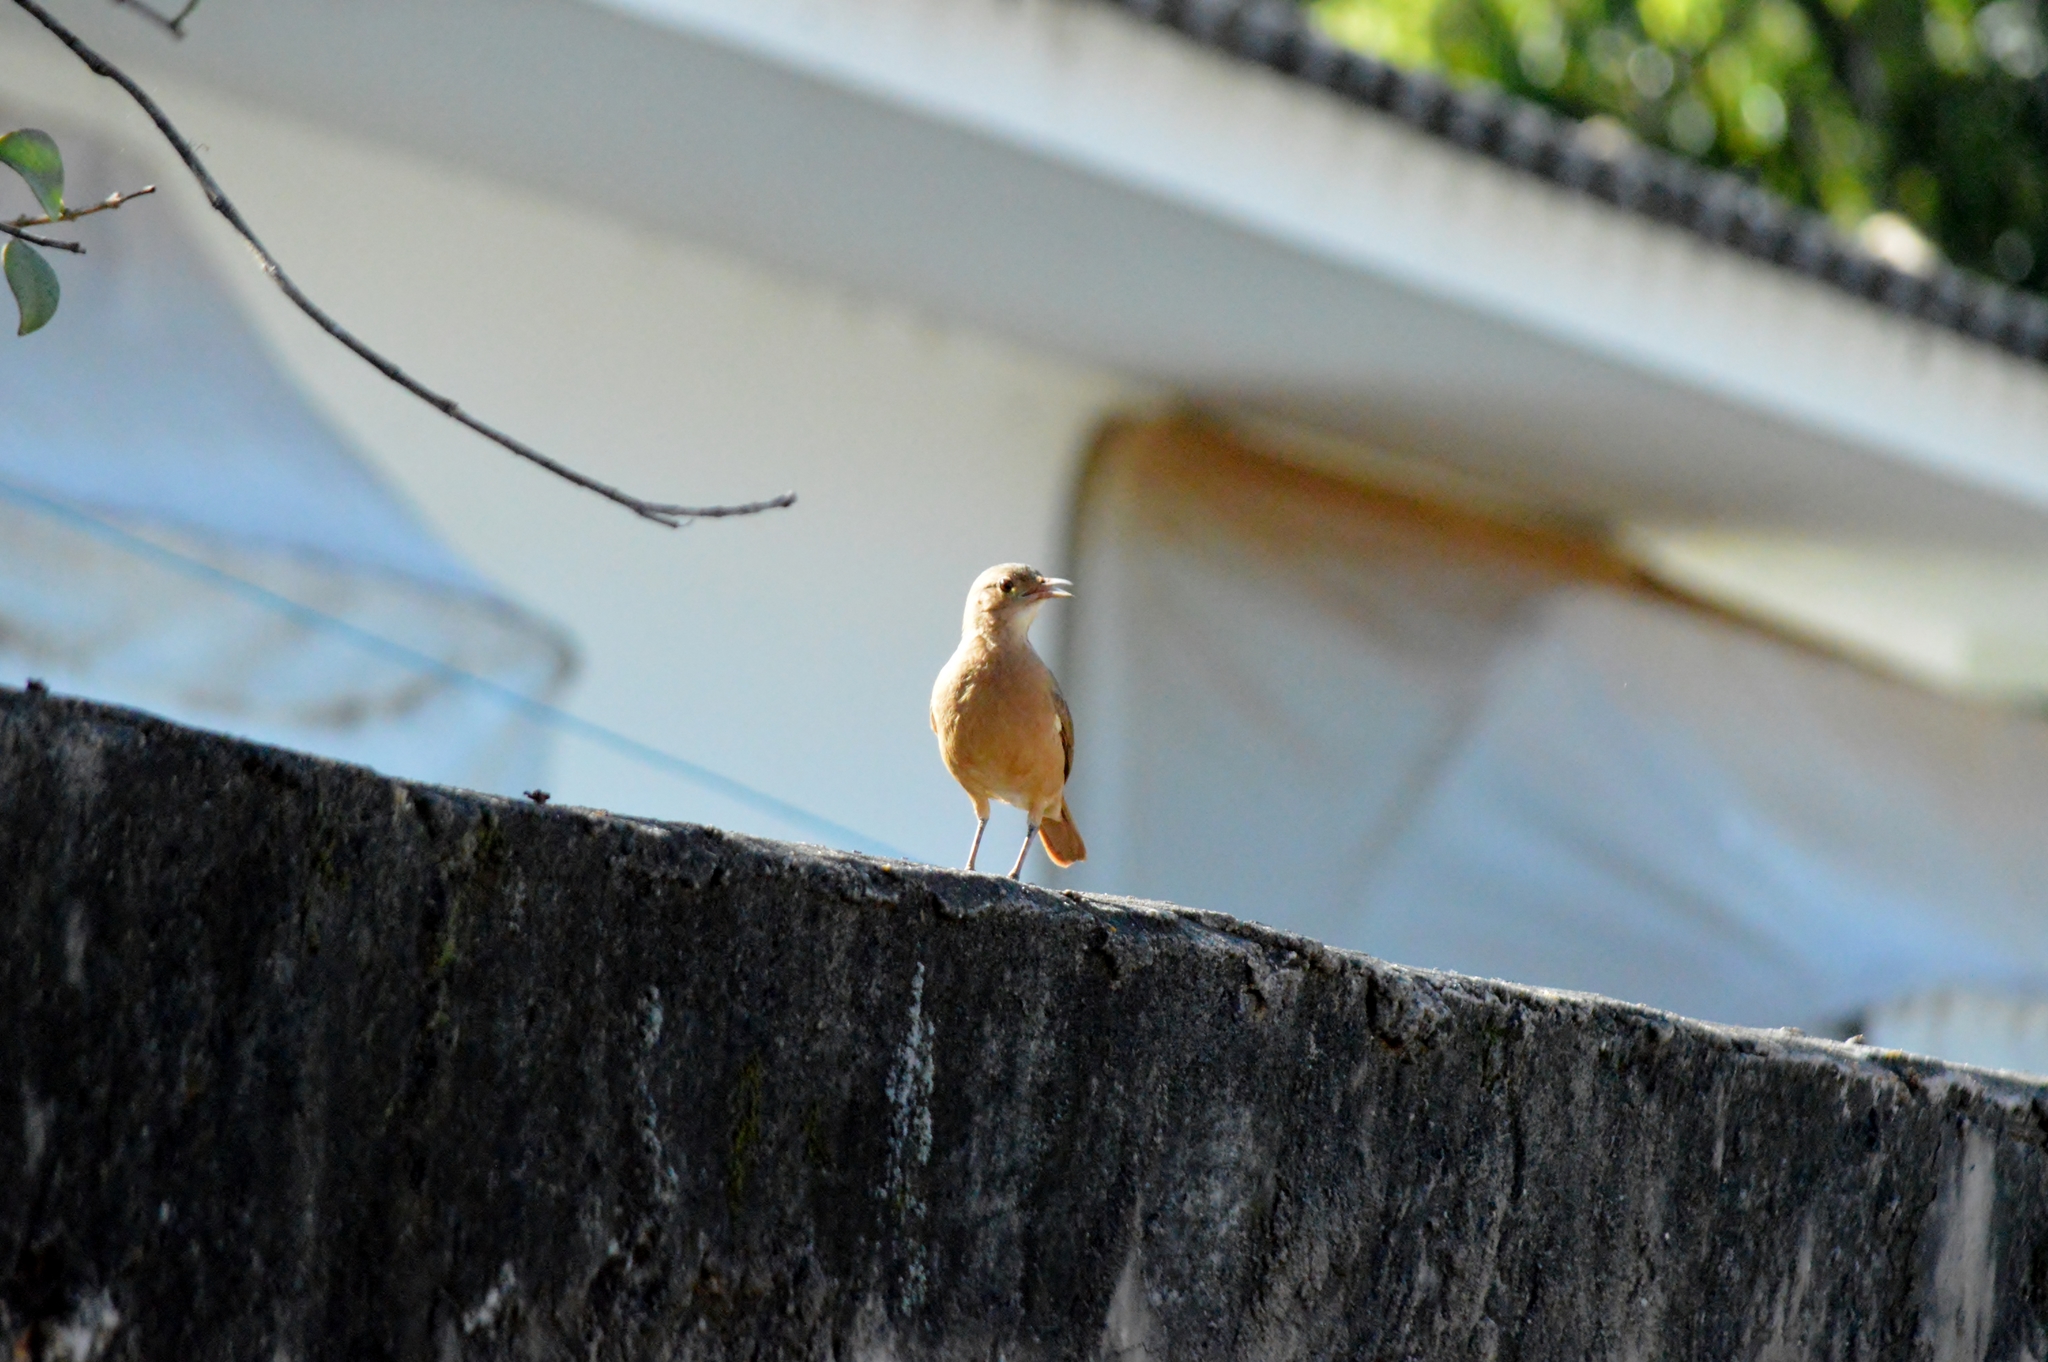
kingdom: Animalia
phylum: Chordata
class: Aves
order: Passeriformes
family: Furnariidae
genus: Furnarius
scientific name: Furnarius rufus
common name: Rufous hornero
